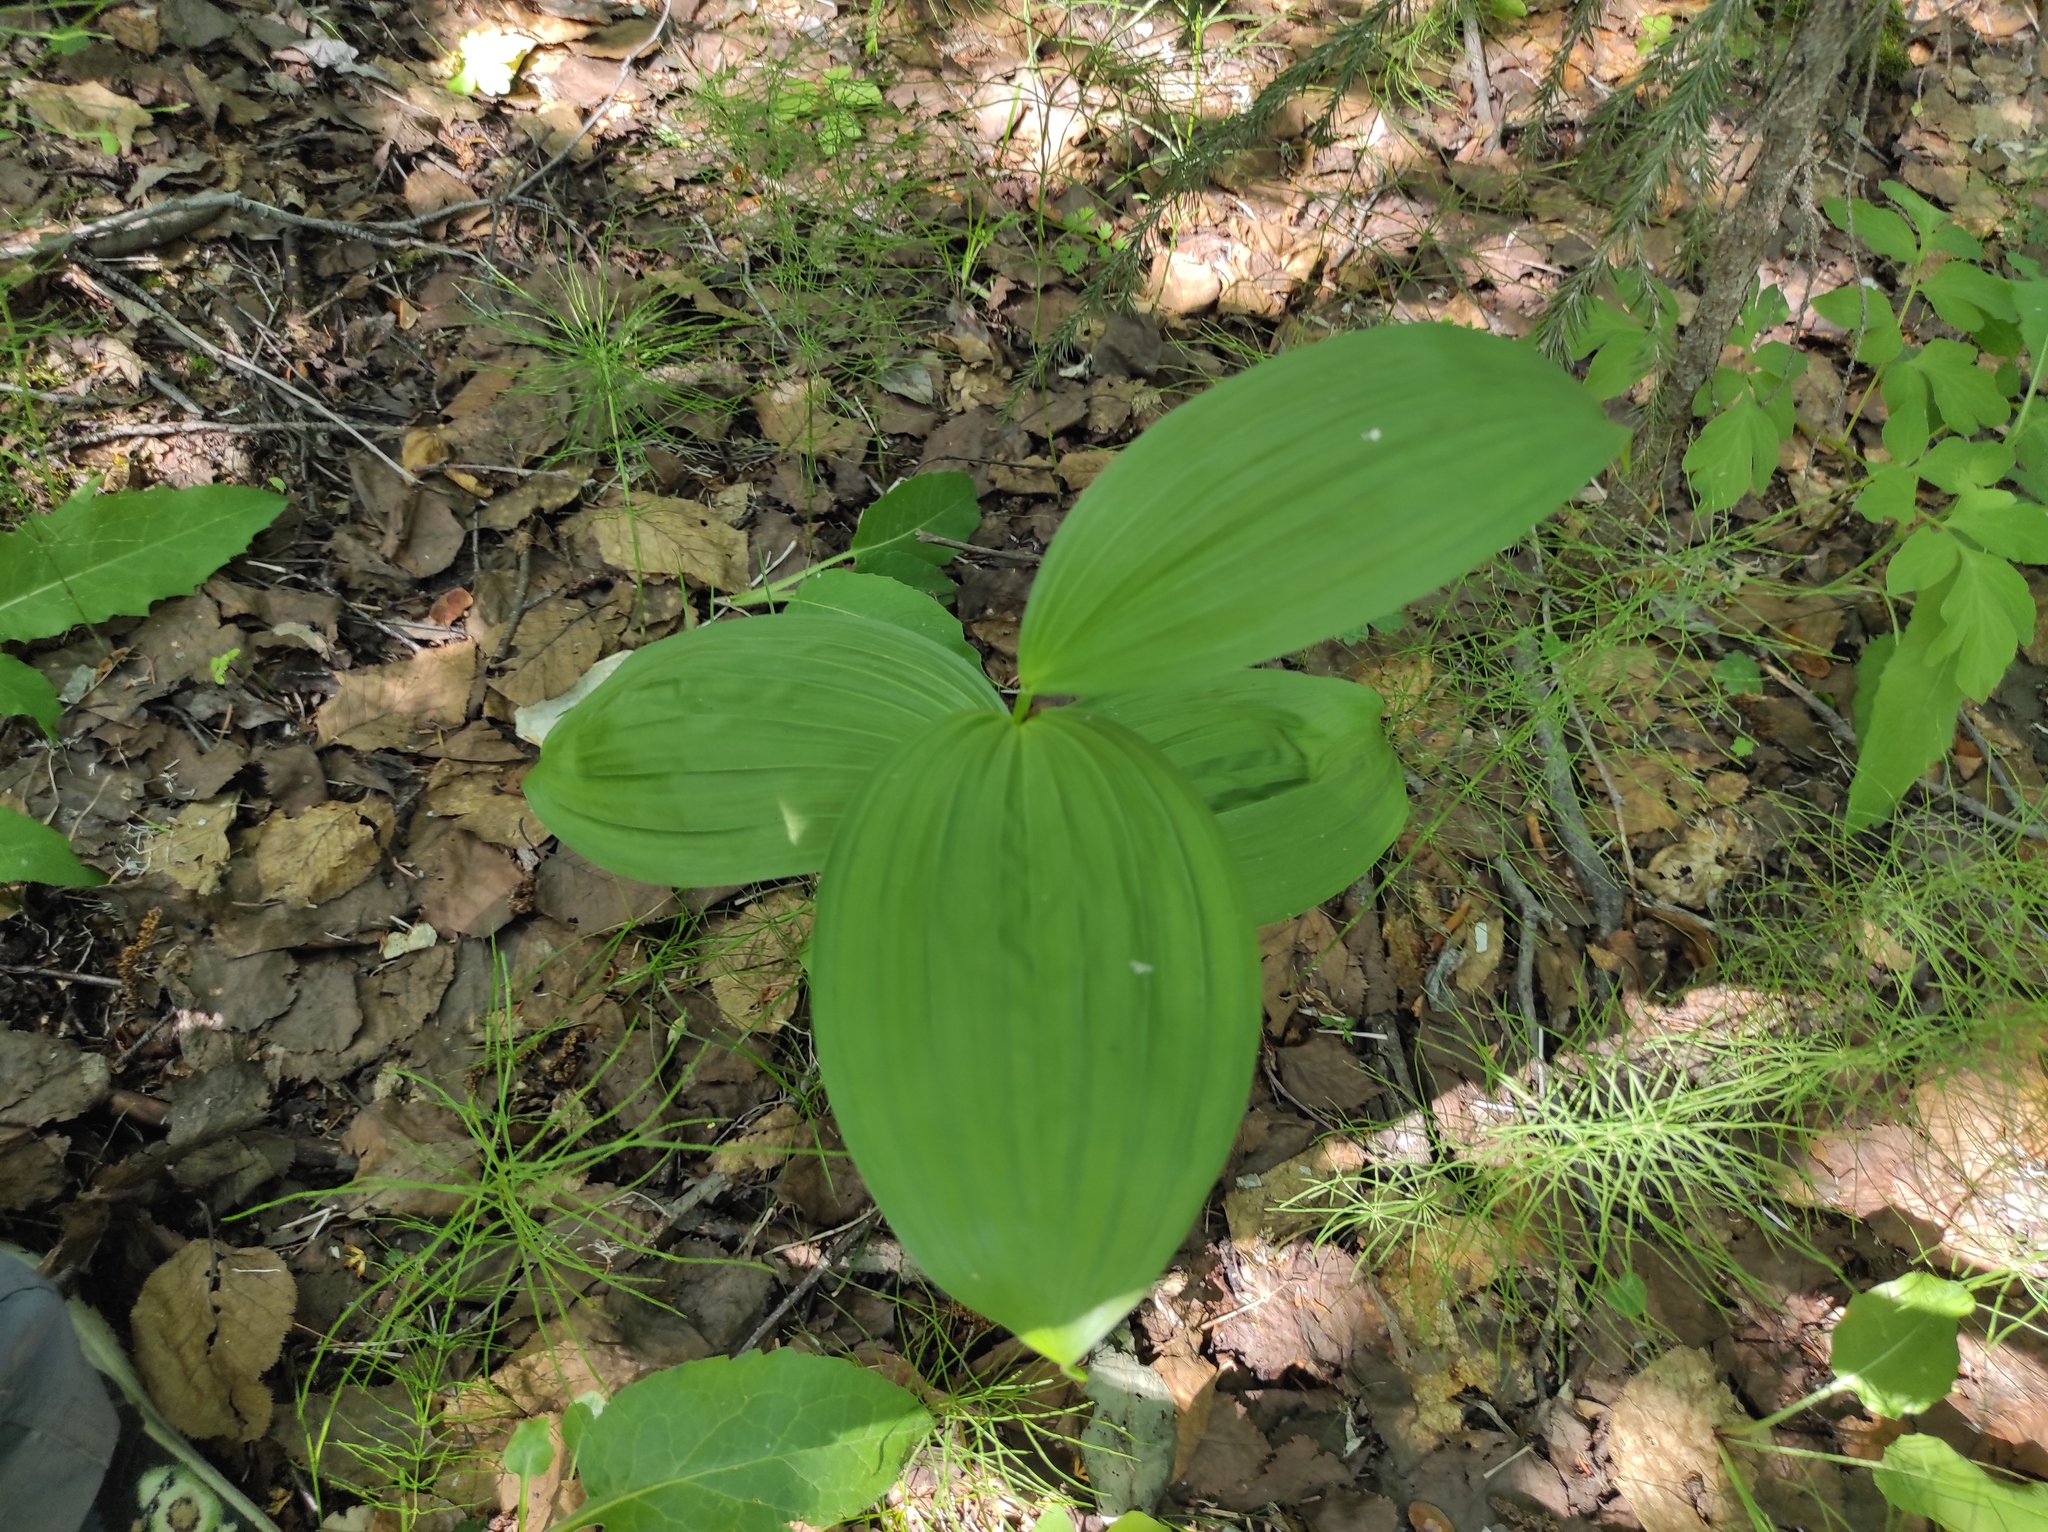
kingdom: Plantae
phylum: Tracheophyta
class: Liliopsida
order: Liliales
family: Melanthiaceae
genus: Veratrum
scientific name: Veratrum lobelianum
